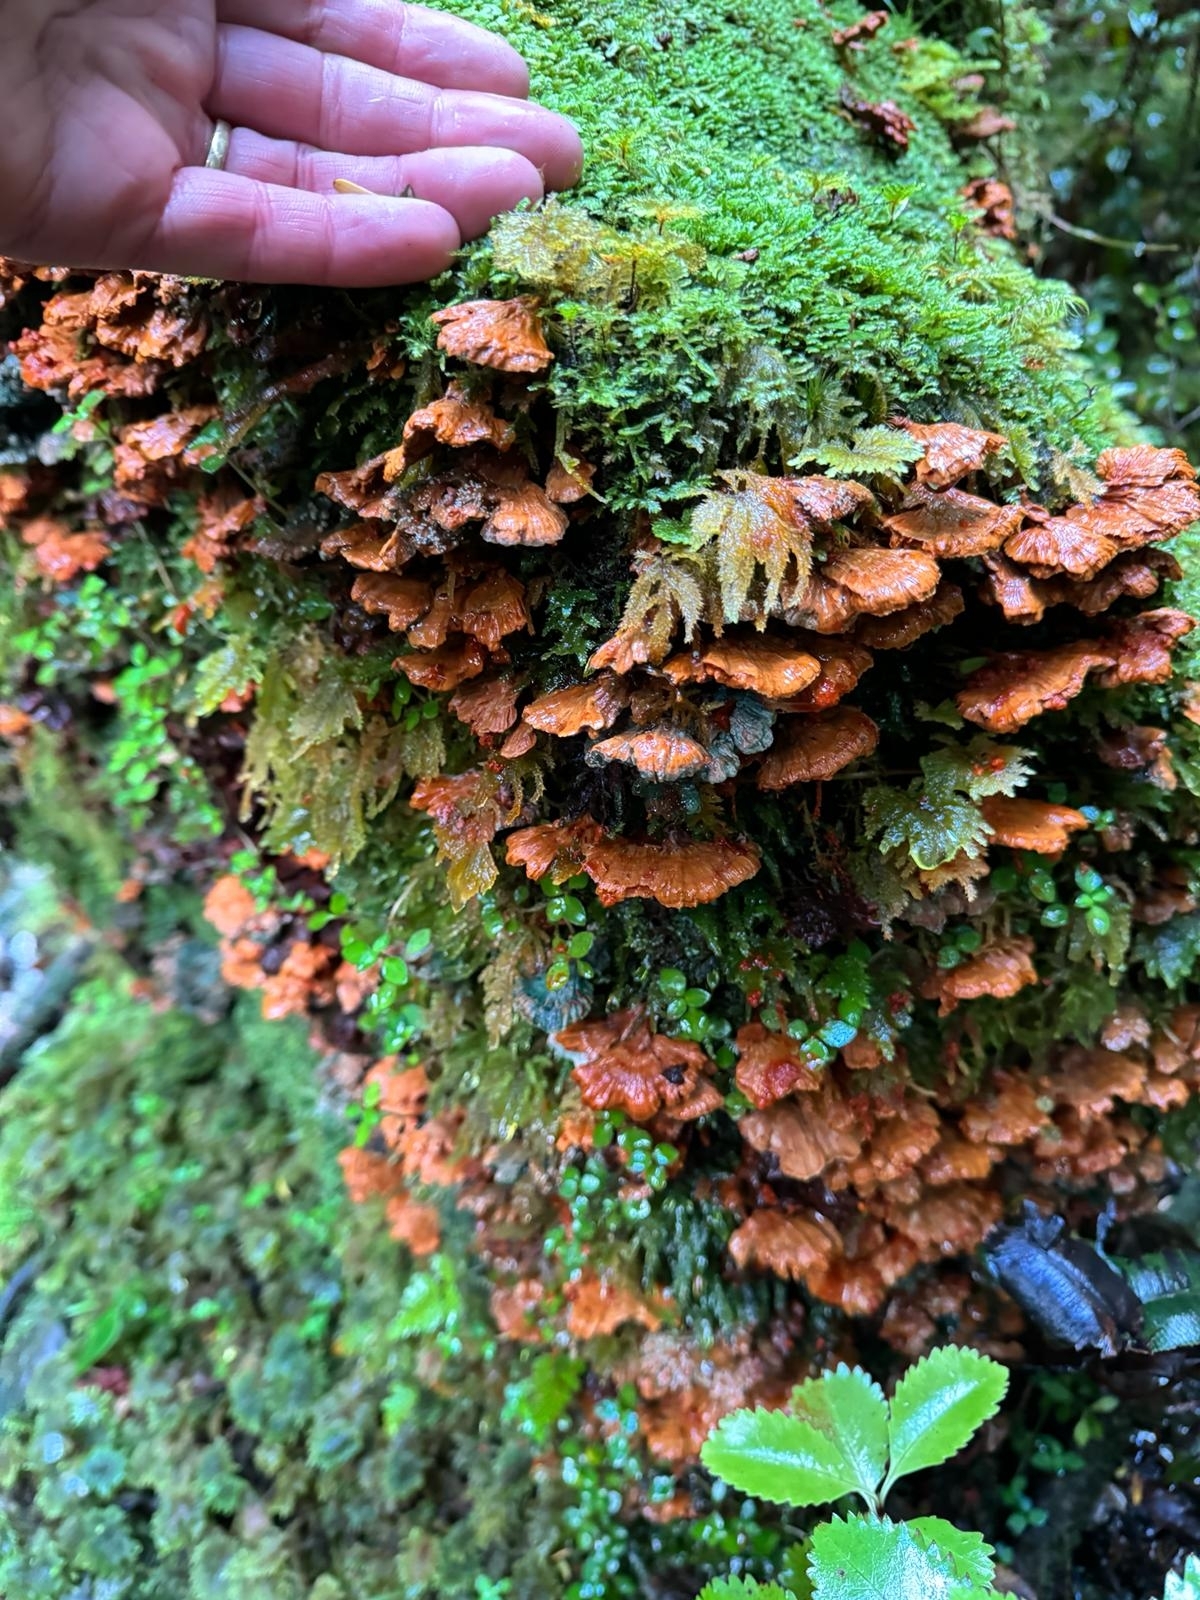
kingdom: Fungi
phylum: Basidiomycota
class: Agaricomycetes
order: Polyporales
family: Meripilaceae
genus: Rigidoporus
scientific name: Rigidoporus aureofulvus
